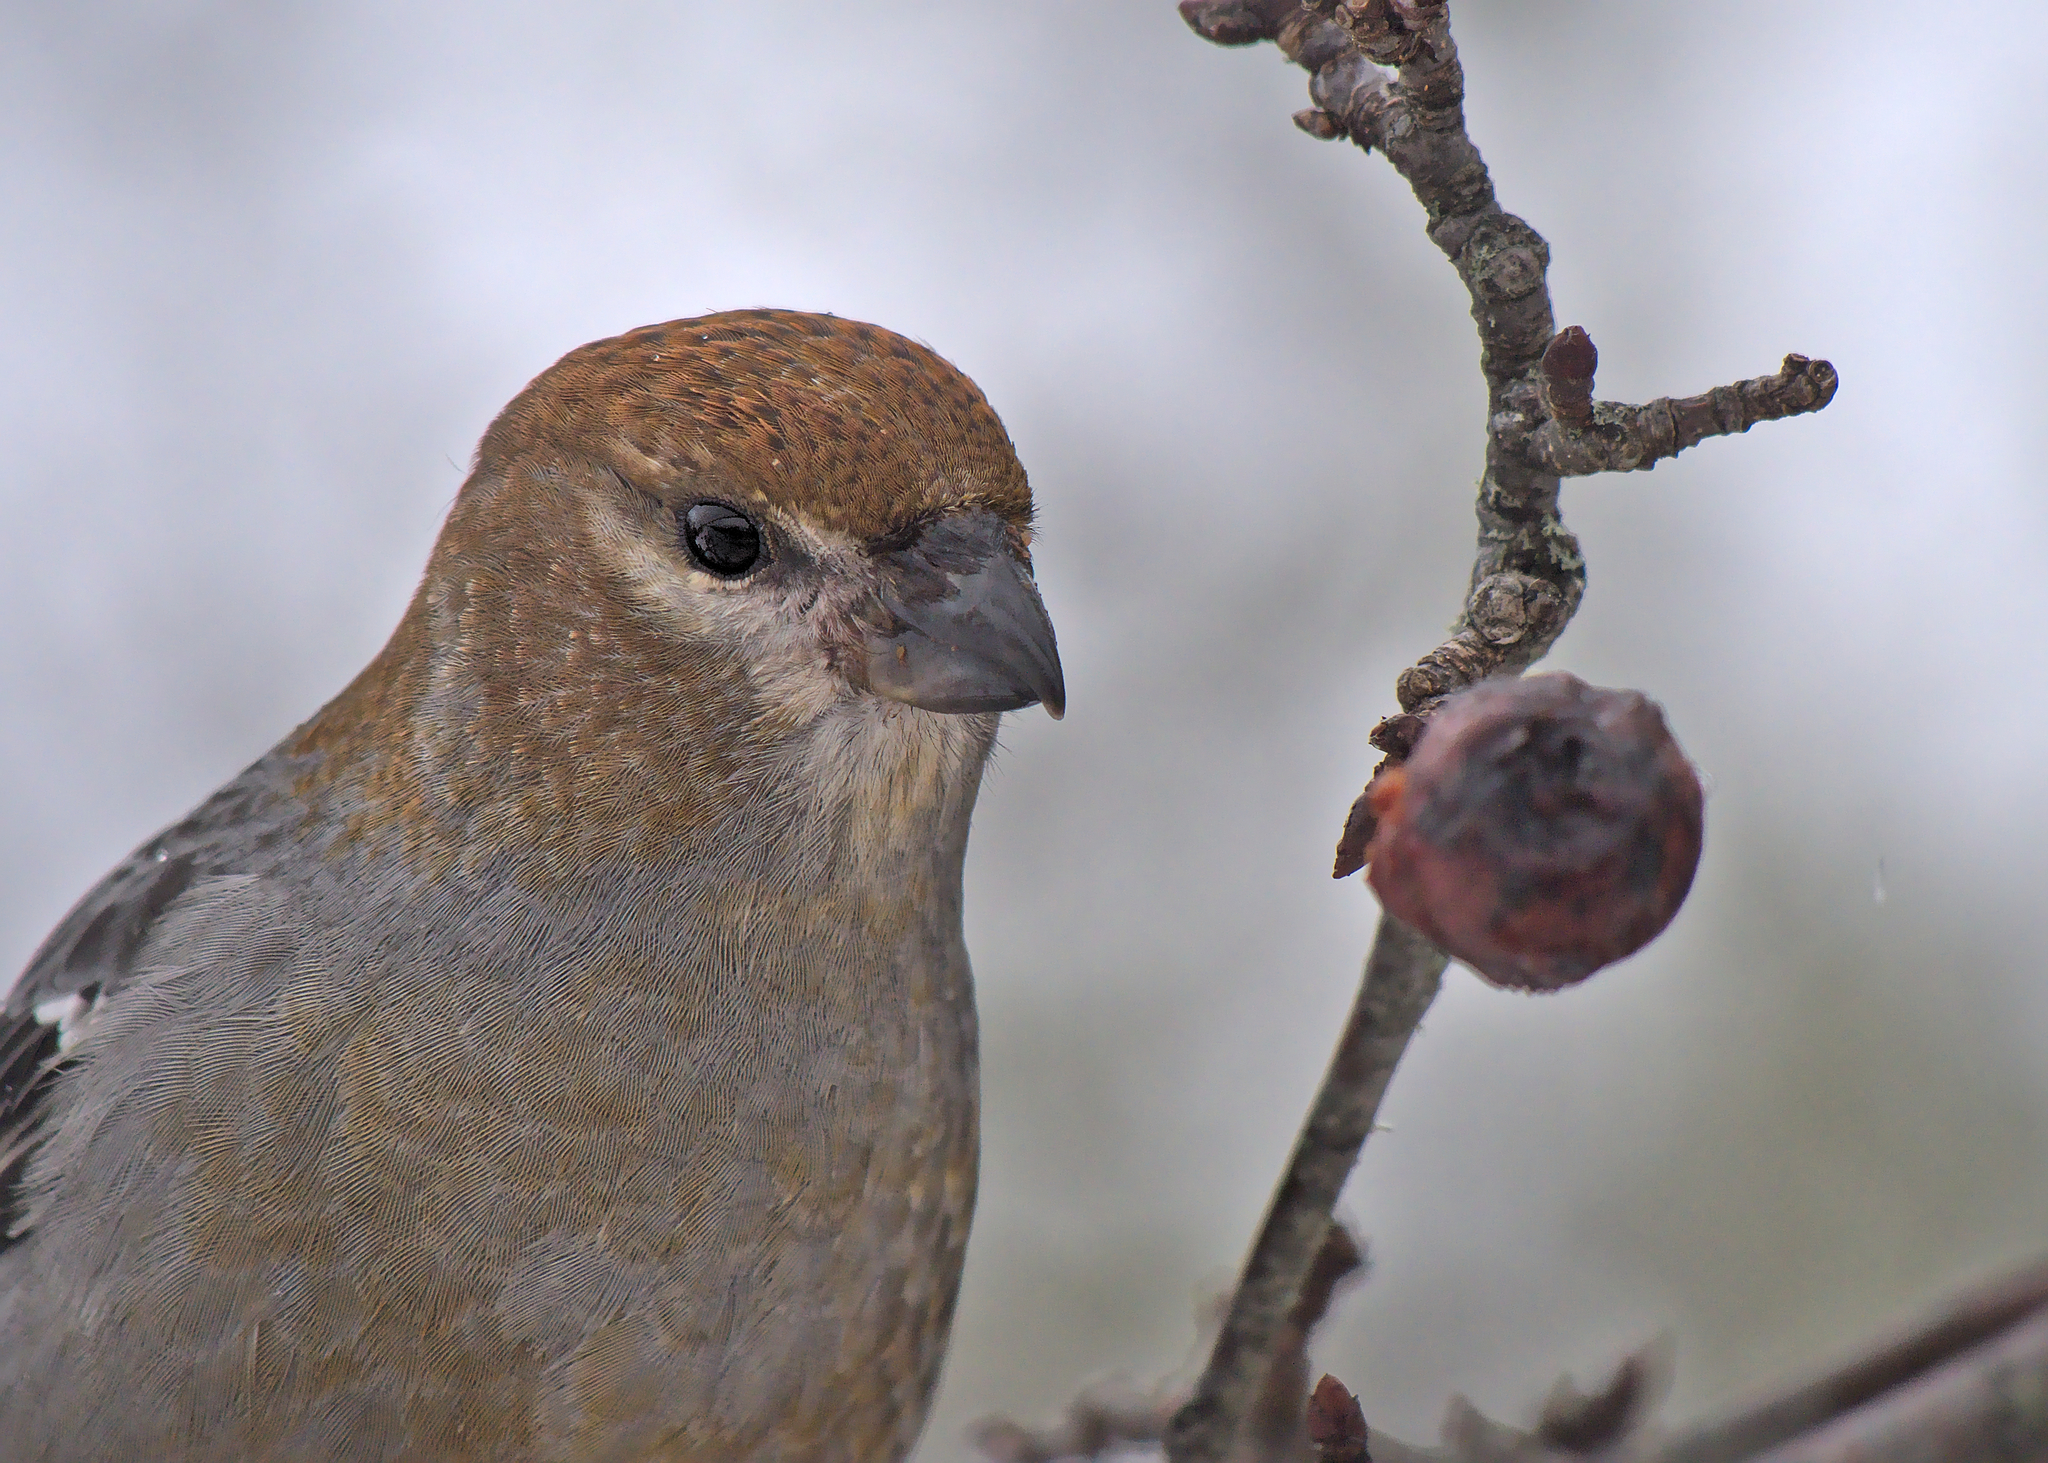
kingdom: Animalia
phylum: Chordata
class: Aves
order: Passeriformes
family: Fringillidae
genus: Pinicola
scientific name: Pinicola enucleator
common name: Pine grosbeak
